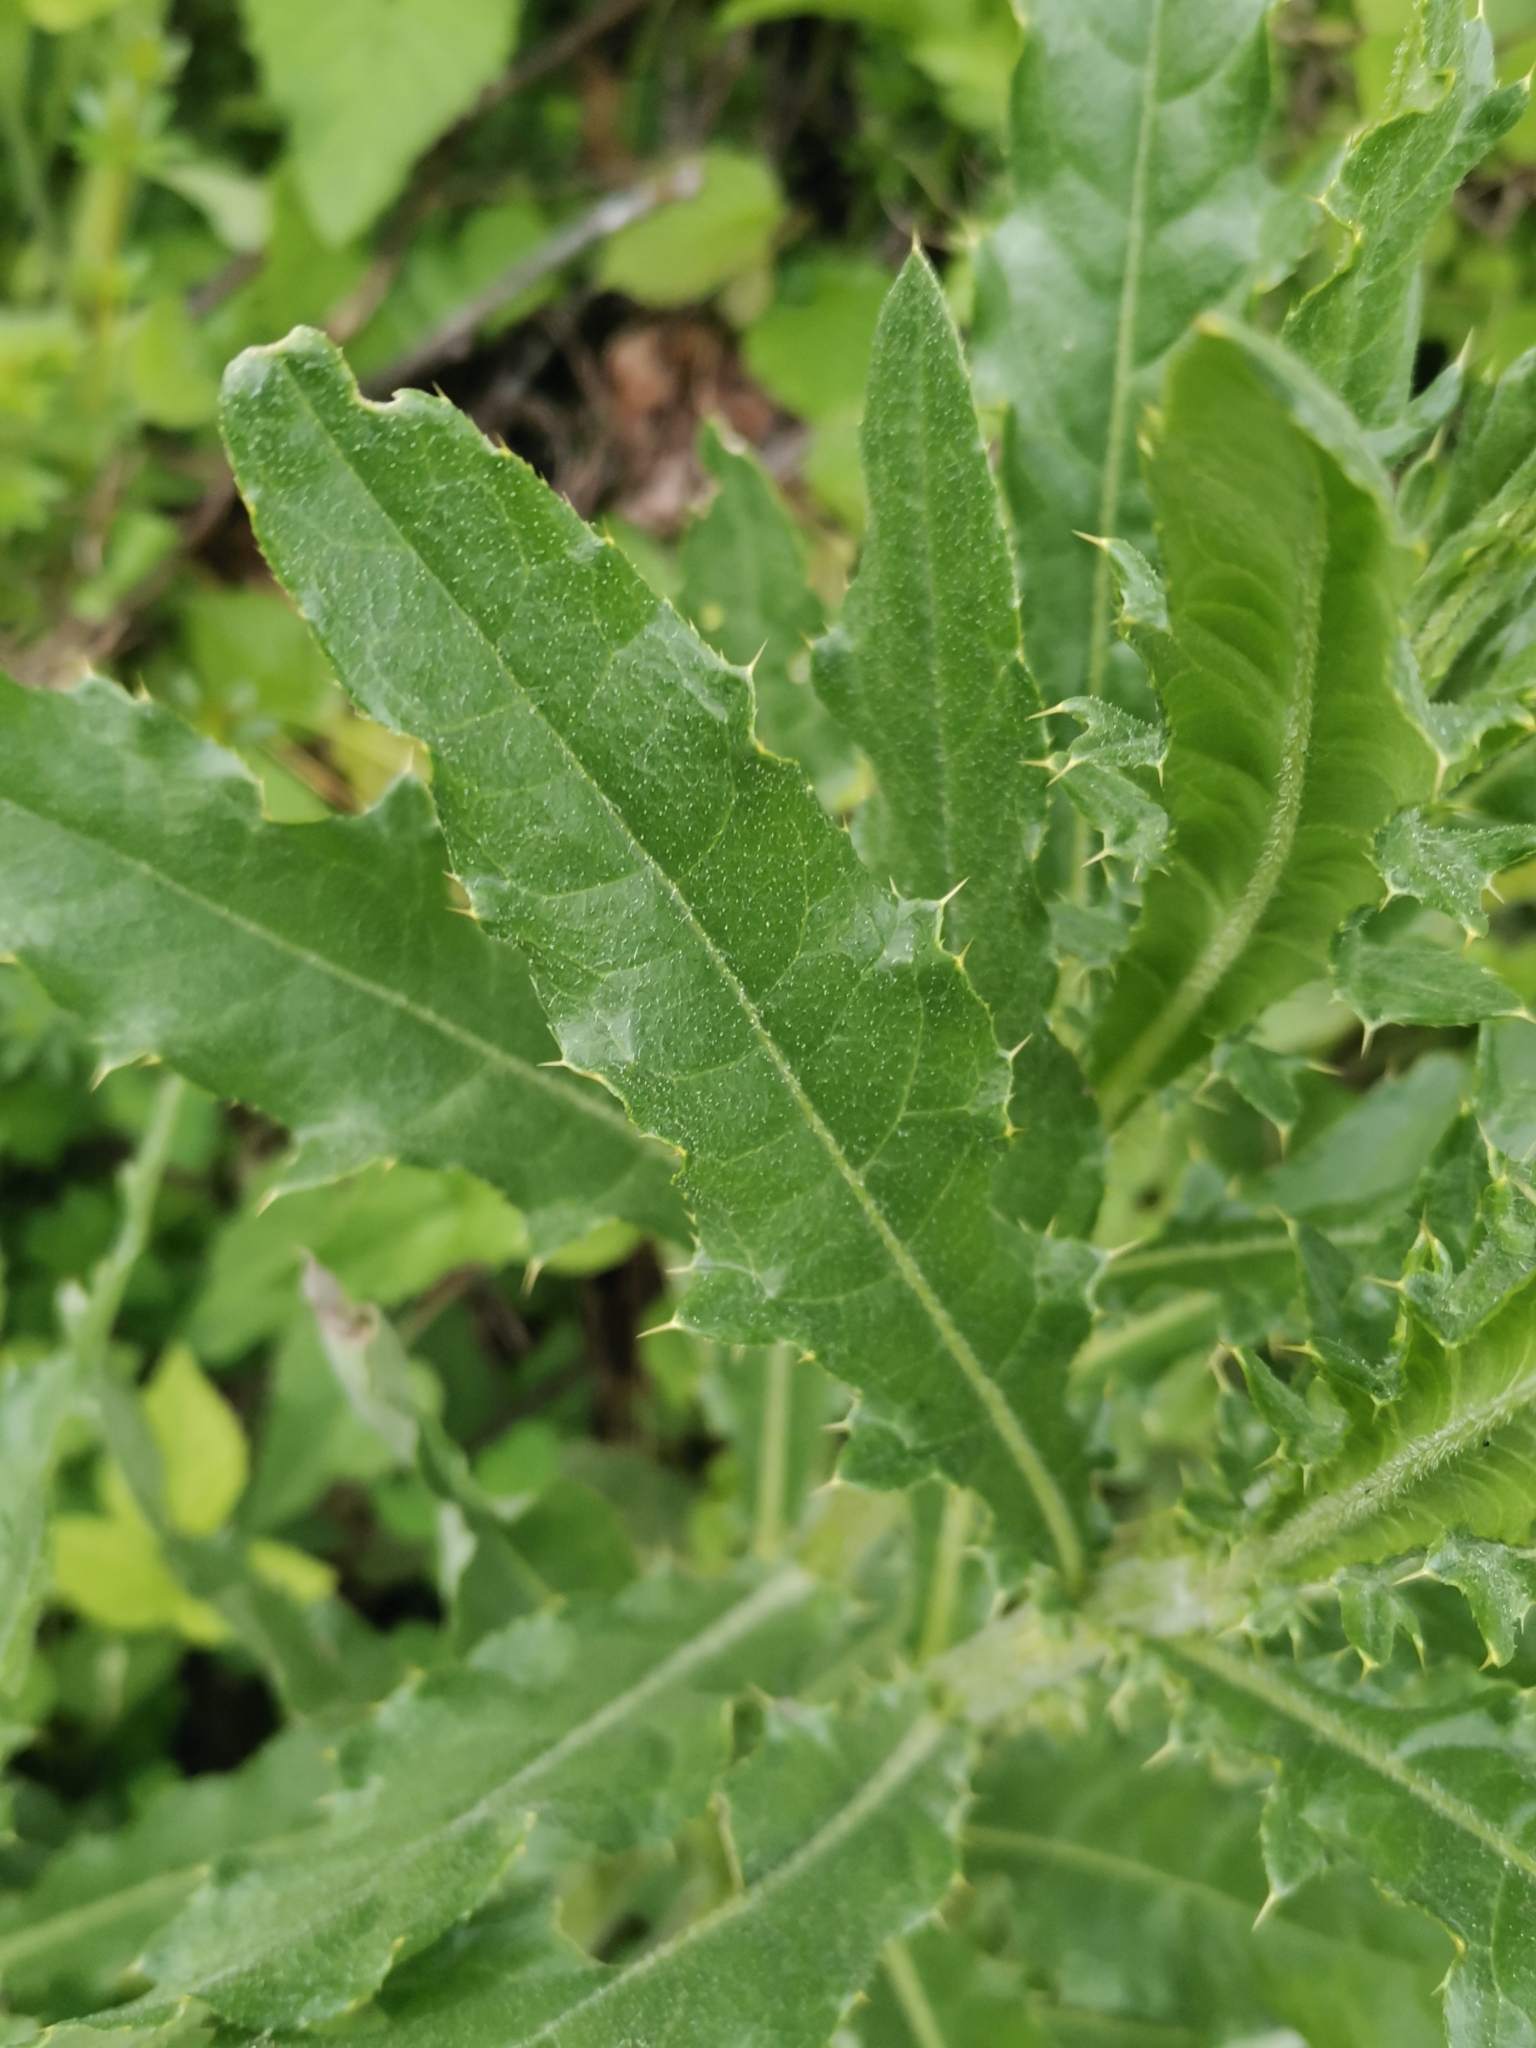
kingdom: Plantae
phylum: Tracheophyta
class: Magnoliopsida
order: Asterales
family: Asteraceae
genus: Cirsium
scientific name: Cirsium arvense
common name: Creeping thistle
